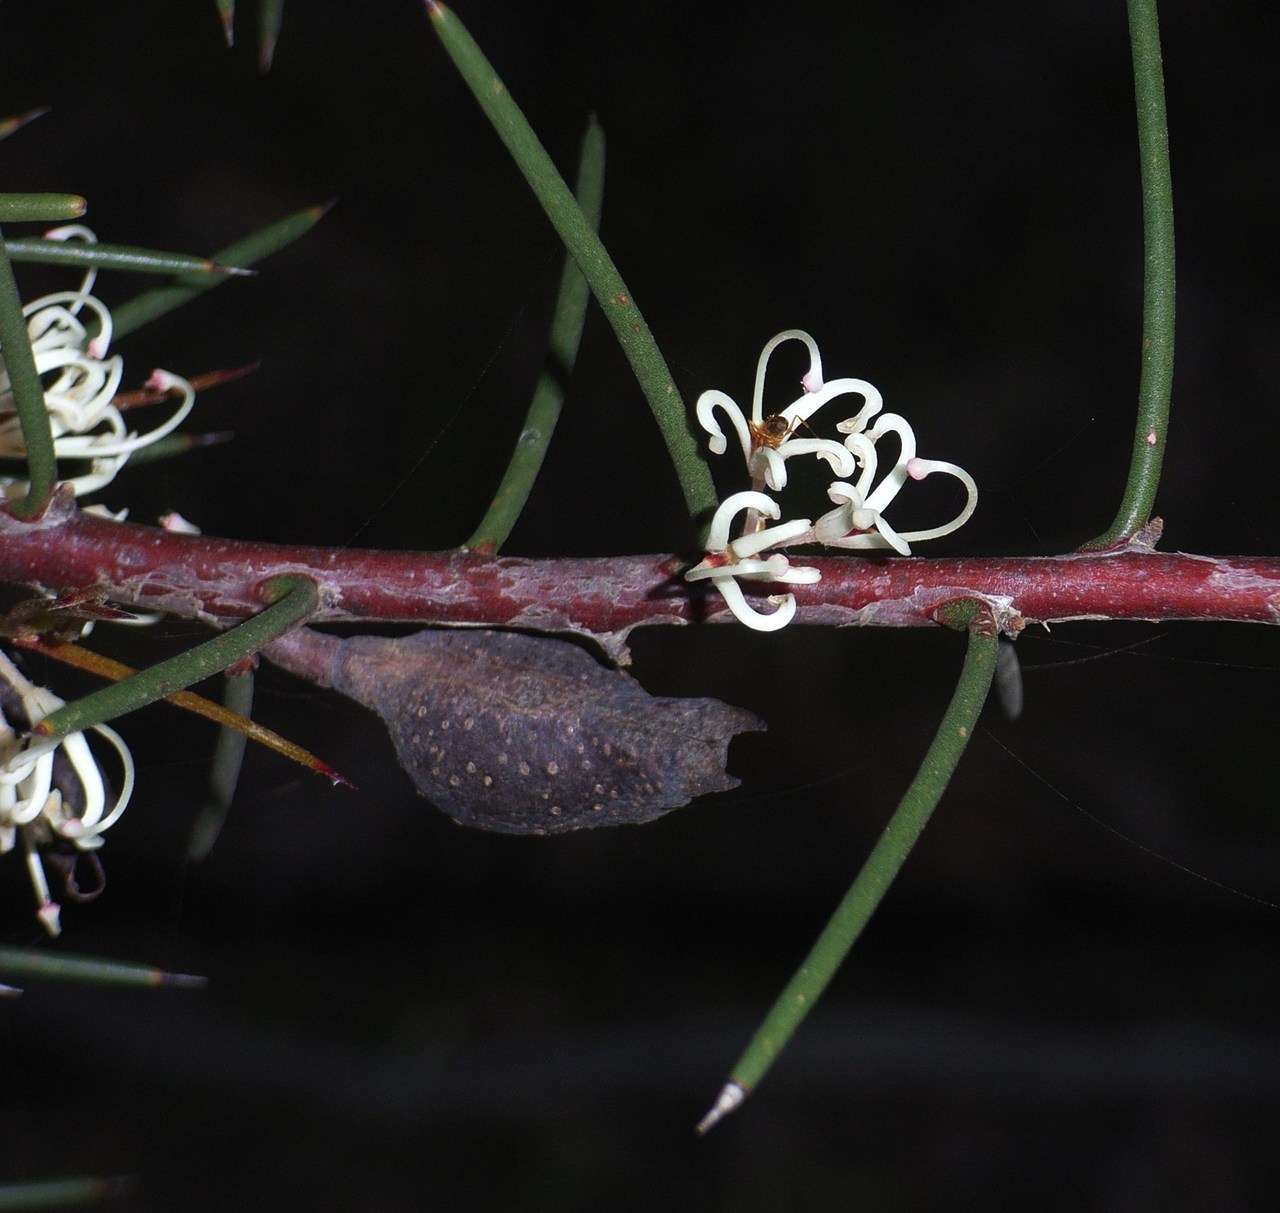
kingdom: Plantae
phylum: Tracheophyta
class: Magnoliopsida
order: Proteales
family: Proteaceae
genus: Hakea
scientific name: Hakea decurrens
